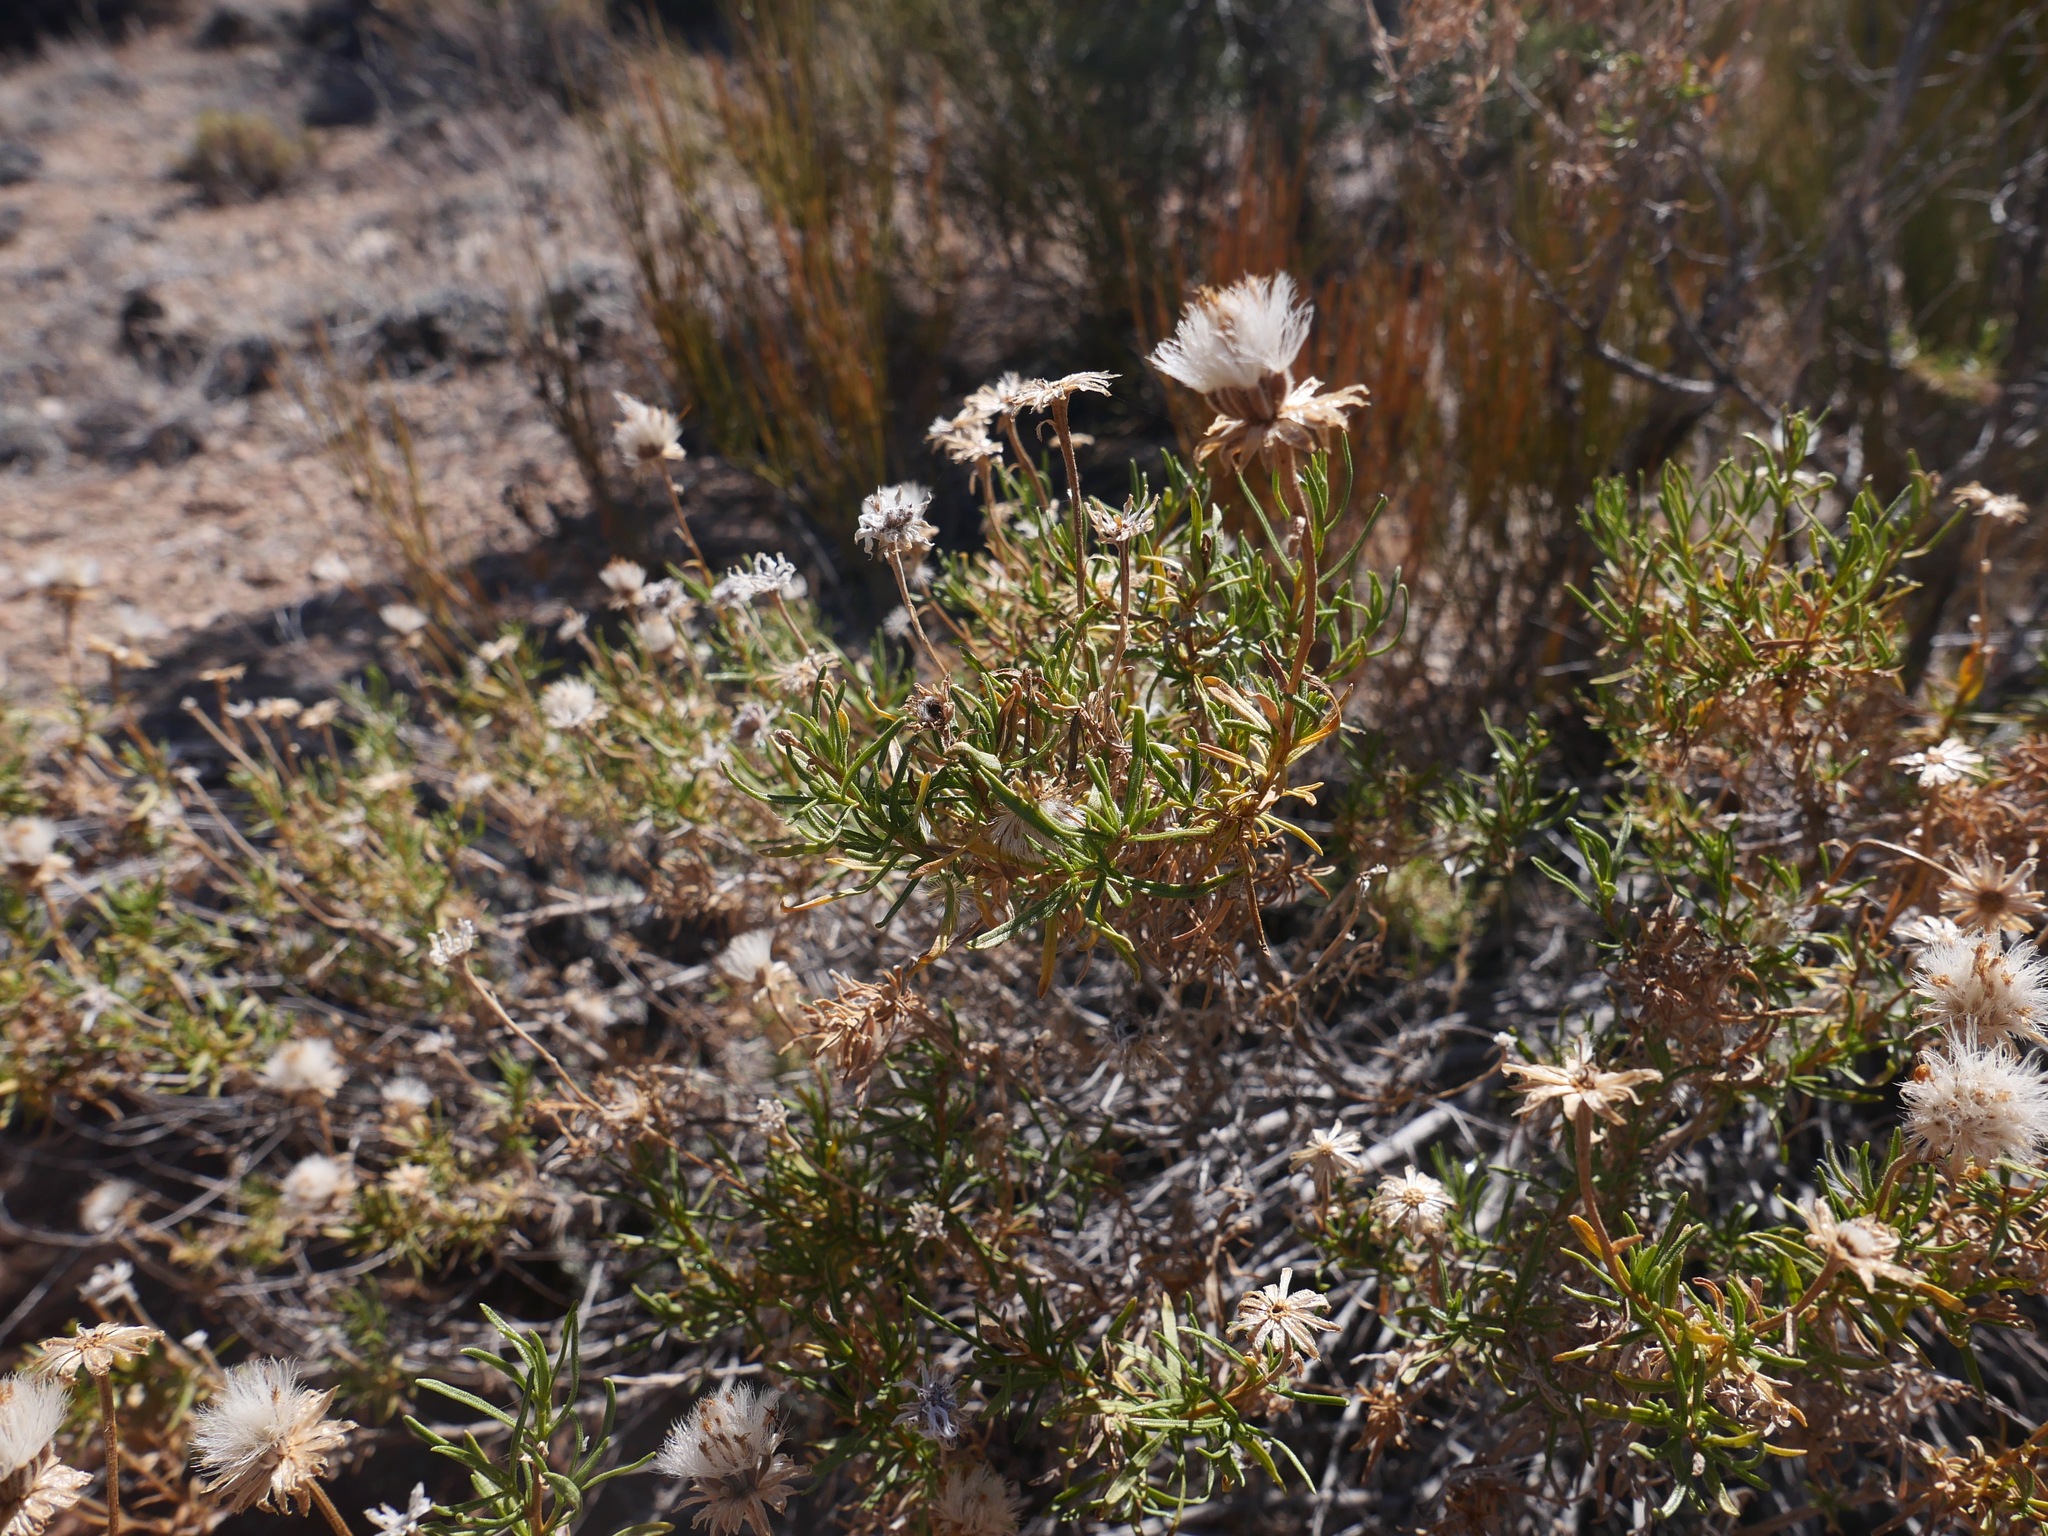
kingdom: Plantae
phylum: Tracheophyta
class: Magnoliopsida
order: Asterales
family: Asteraceae
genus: Ericameria
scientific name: Ericameria linearifolia
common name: Interior goldenbush
